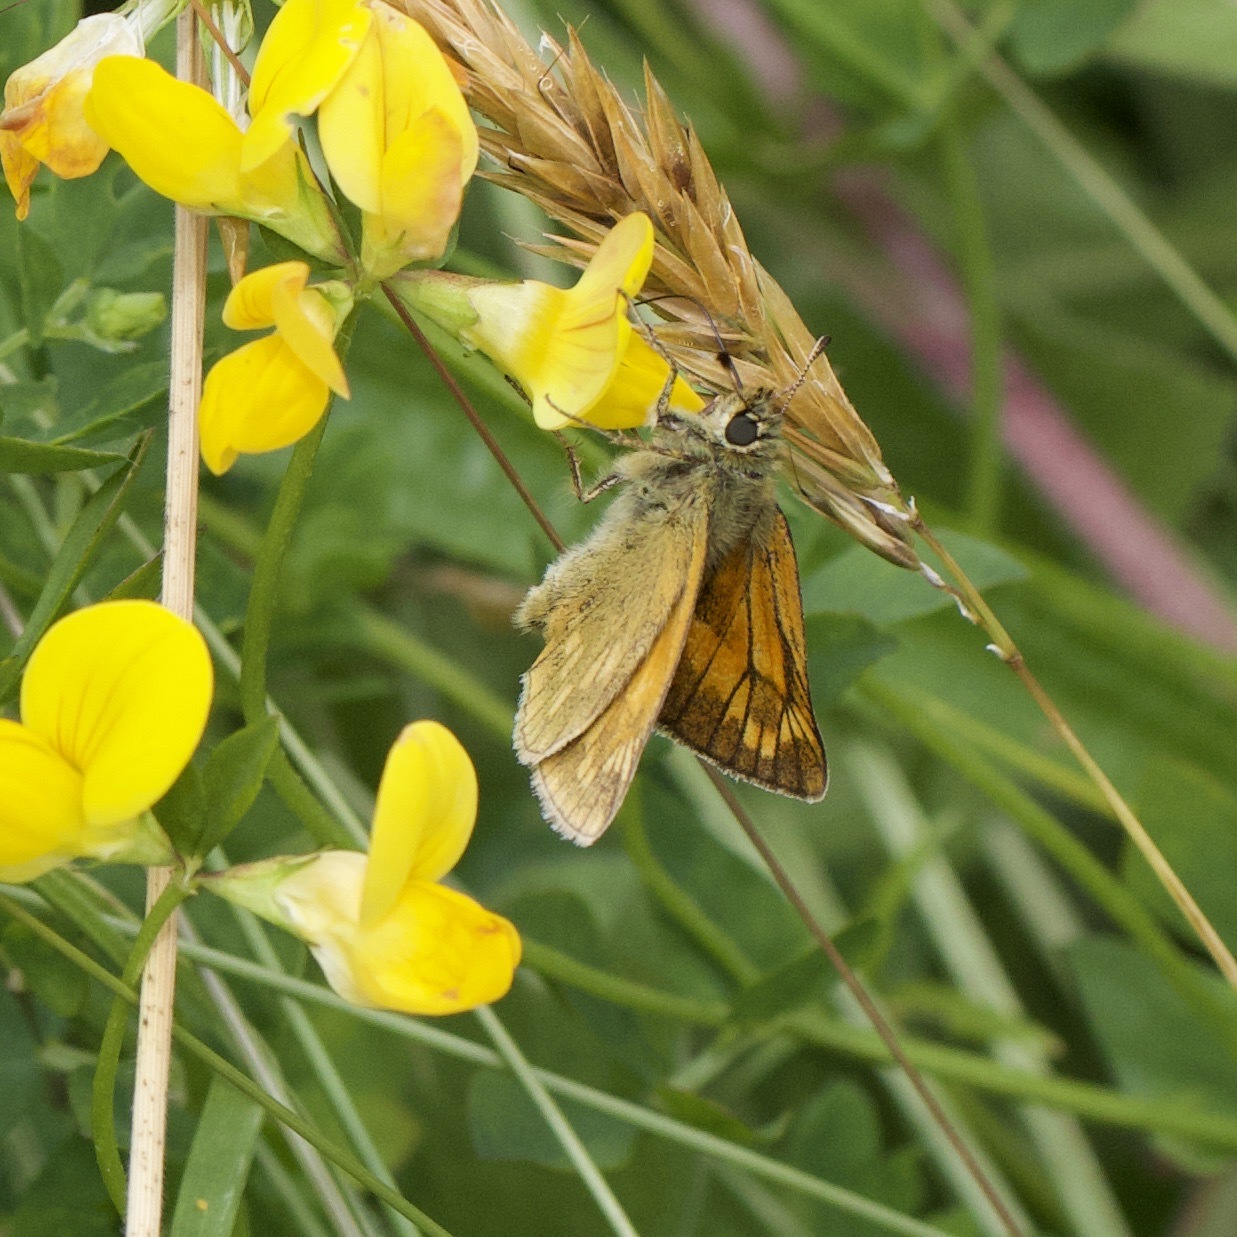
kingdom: Animalia
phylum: Arthropoda
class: Insecta
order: Lepidoptera
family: Hesperiidae
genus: Ochlodes
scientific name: Ochlodes venata
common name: Large skipper
